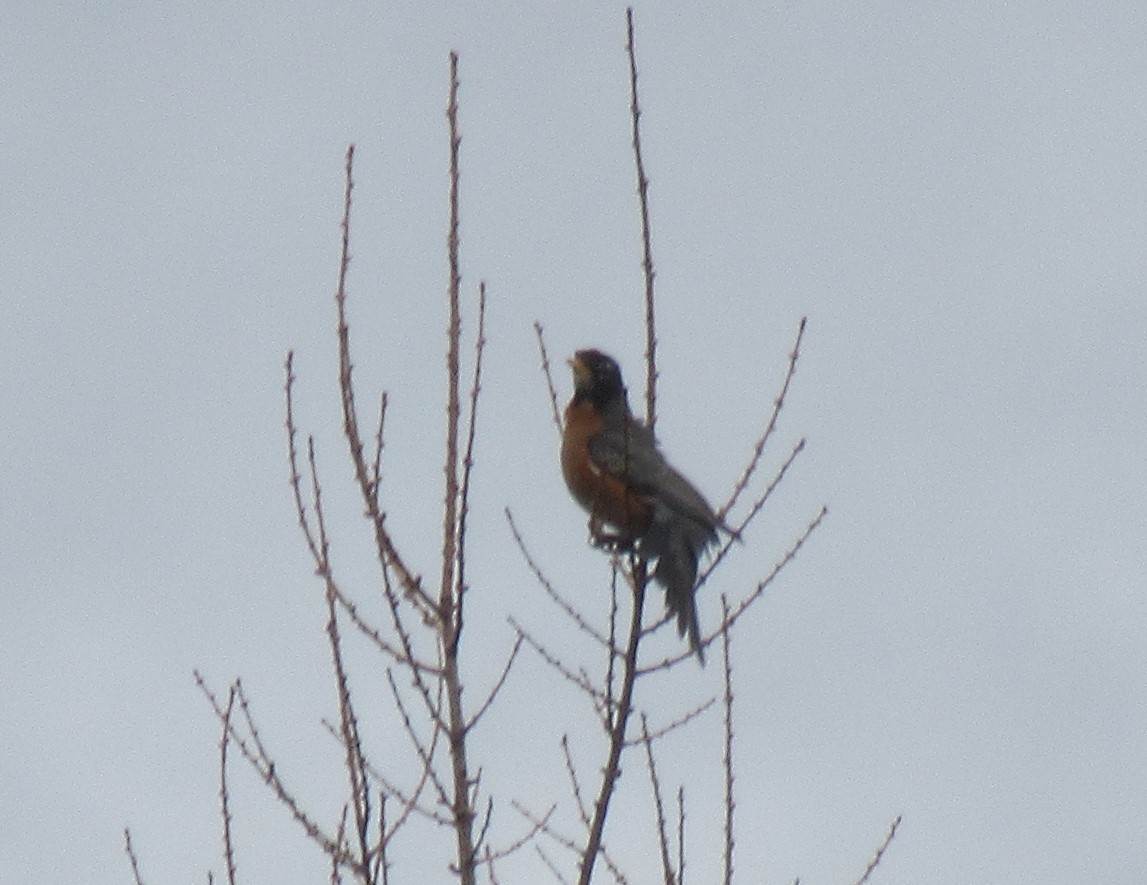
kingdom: Animalia
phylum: Chordata
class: Aves
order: Passeriformes
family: Turdidae
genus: Turdus
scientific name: Turdus migratorius
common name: American robin
